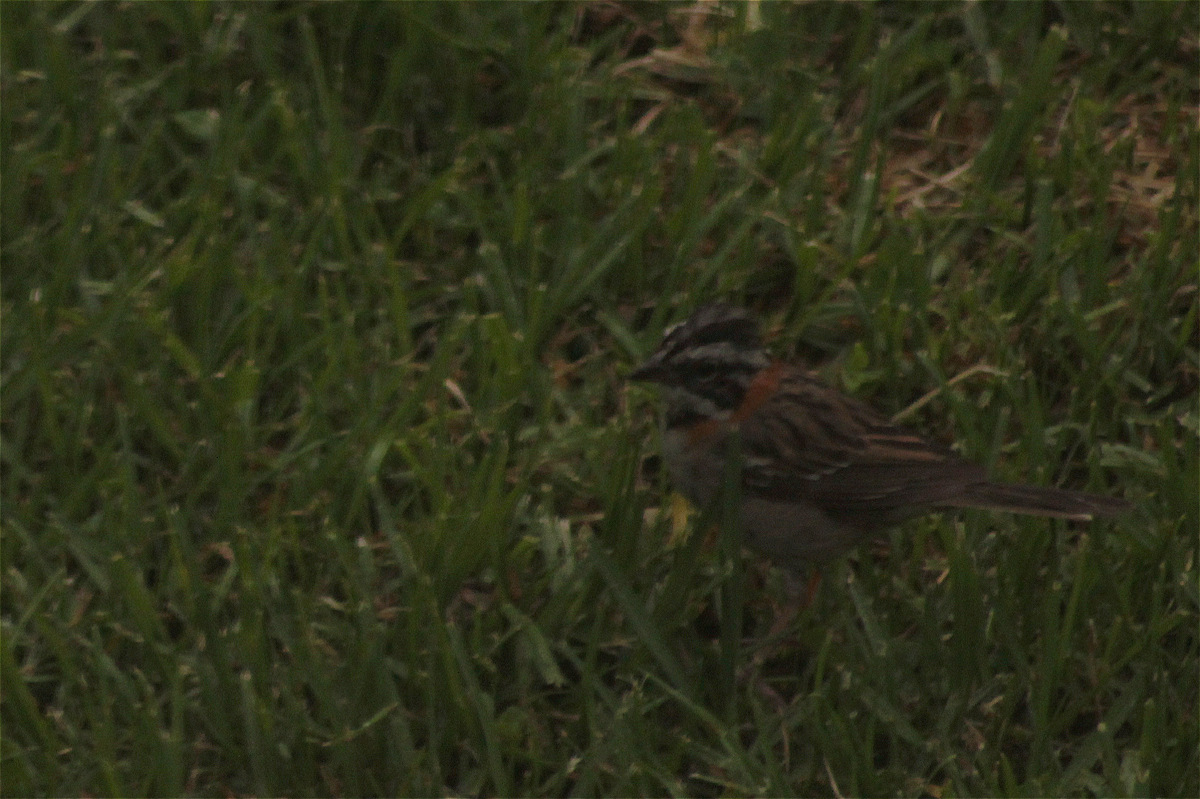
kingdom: Animalia
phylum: Chordata
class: Aves
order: Passeriformes
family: Passerellidae
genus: Zonotrichia
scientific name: Zonotrichia capensis
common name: Rufous-collared sparrow
